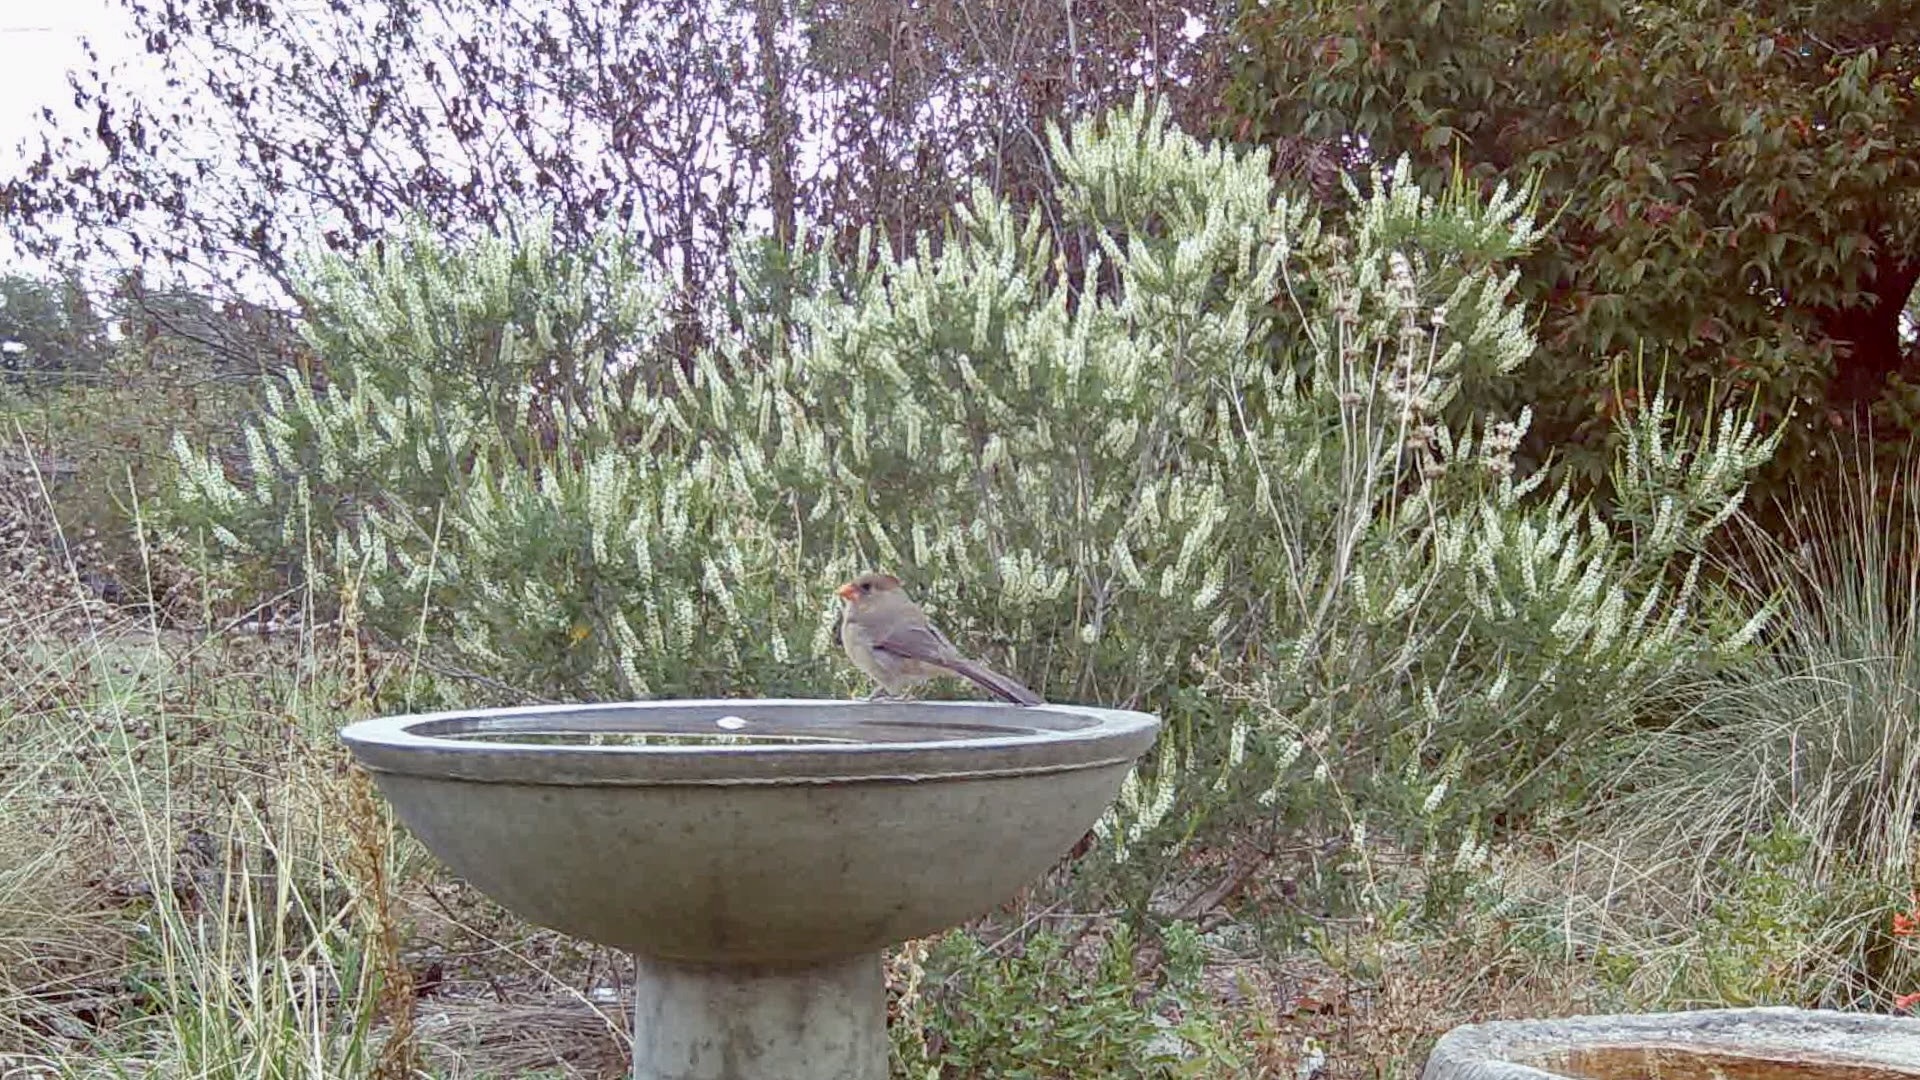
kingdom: Animalia
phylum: Chordata
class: Aves
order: Passeriformes
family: Cardinalidae
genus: Cardinalis
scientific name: Cardinalis cardinalis
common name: Northern cardinal
